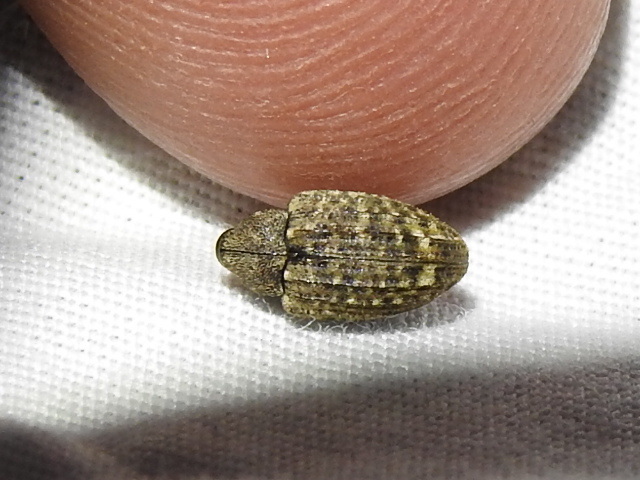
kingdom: Animalia
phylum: Arthropoda
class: Insecta
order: Coleoptera
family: Curculionidae
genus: Conotrachelus
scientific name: Conotrachelus naso
